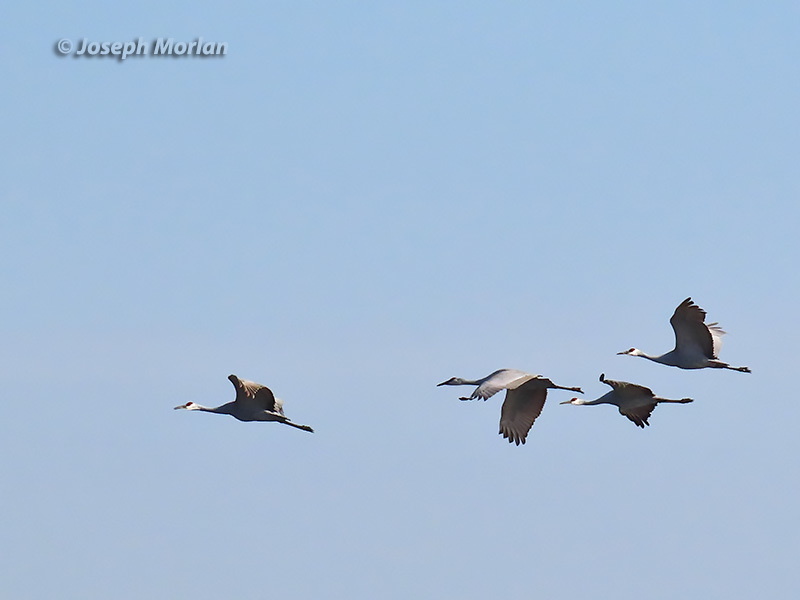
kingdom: Animalia
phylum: Chordata
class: Aves
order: Gruiformes
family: Gruidae
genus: Grus
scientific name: Grus canadensis
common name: Sandhill crane
